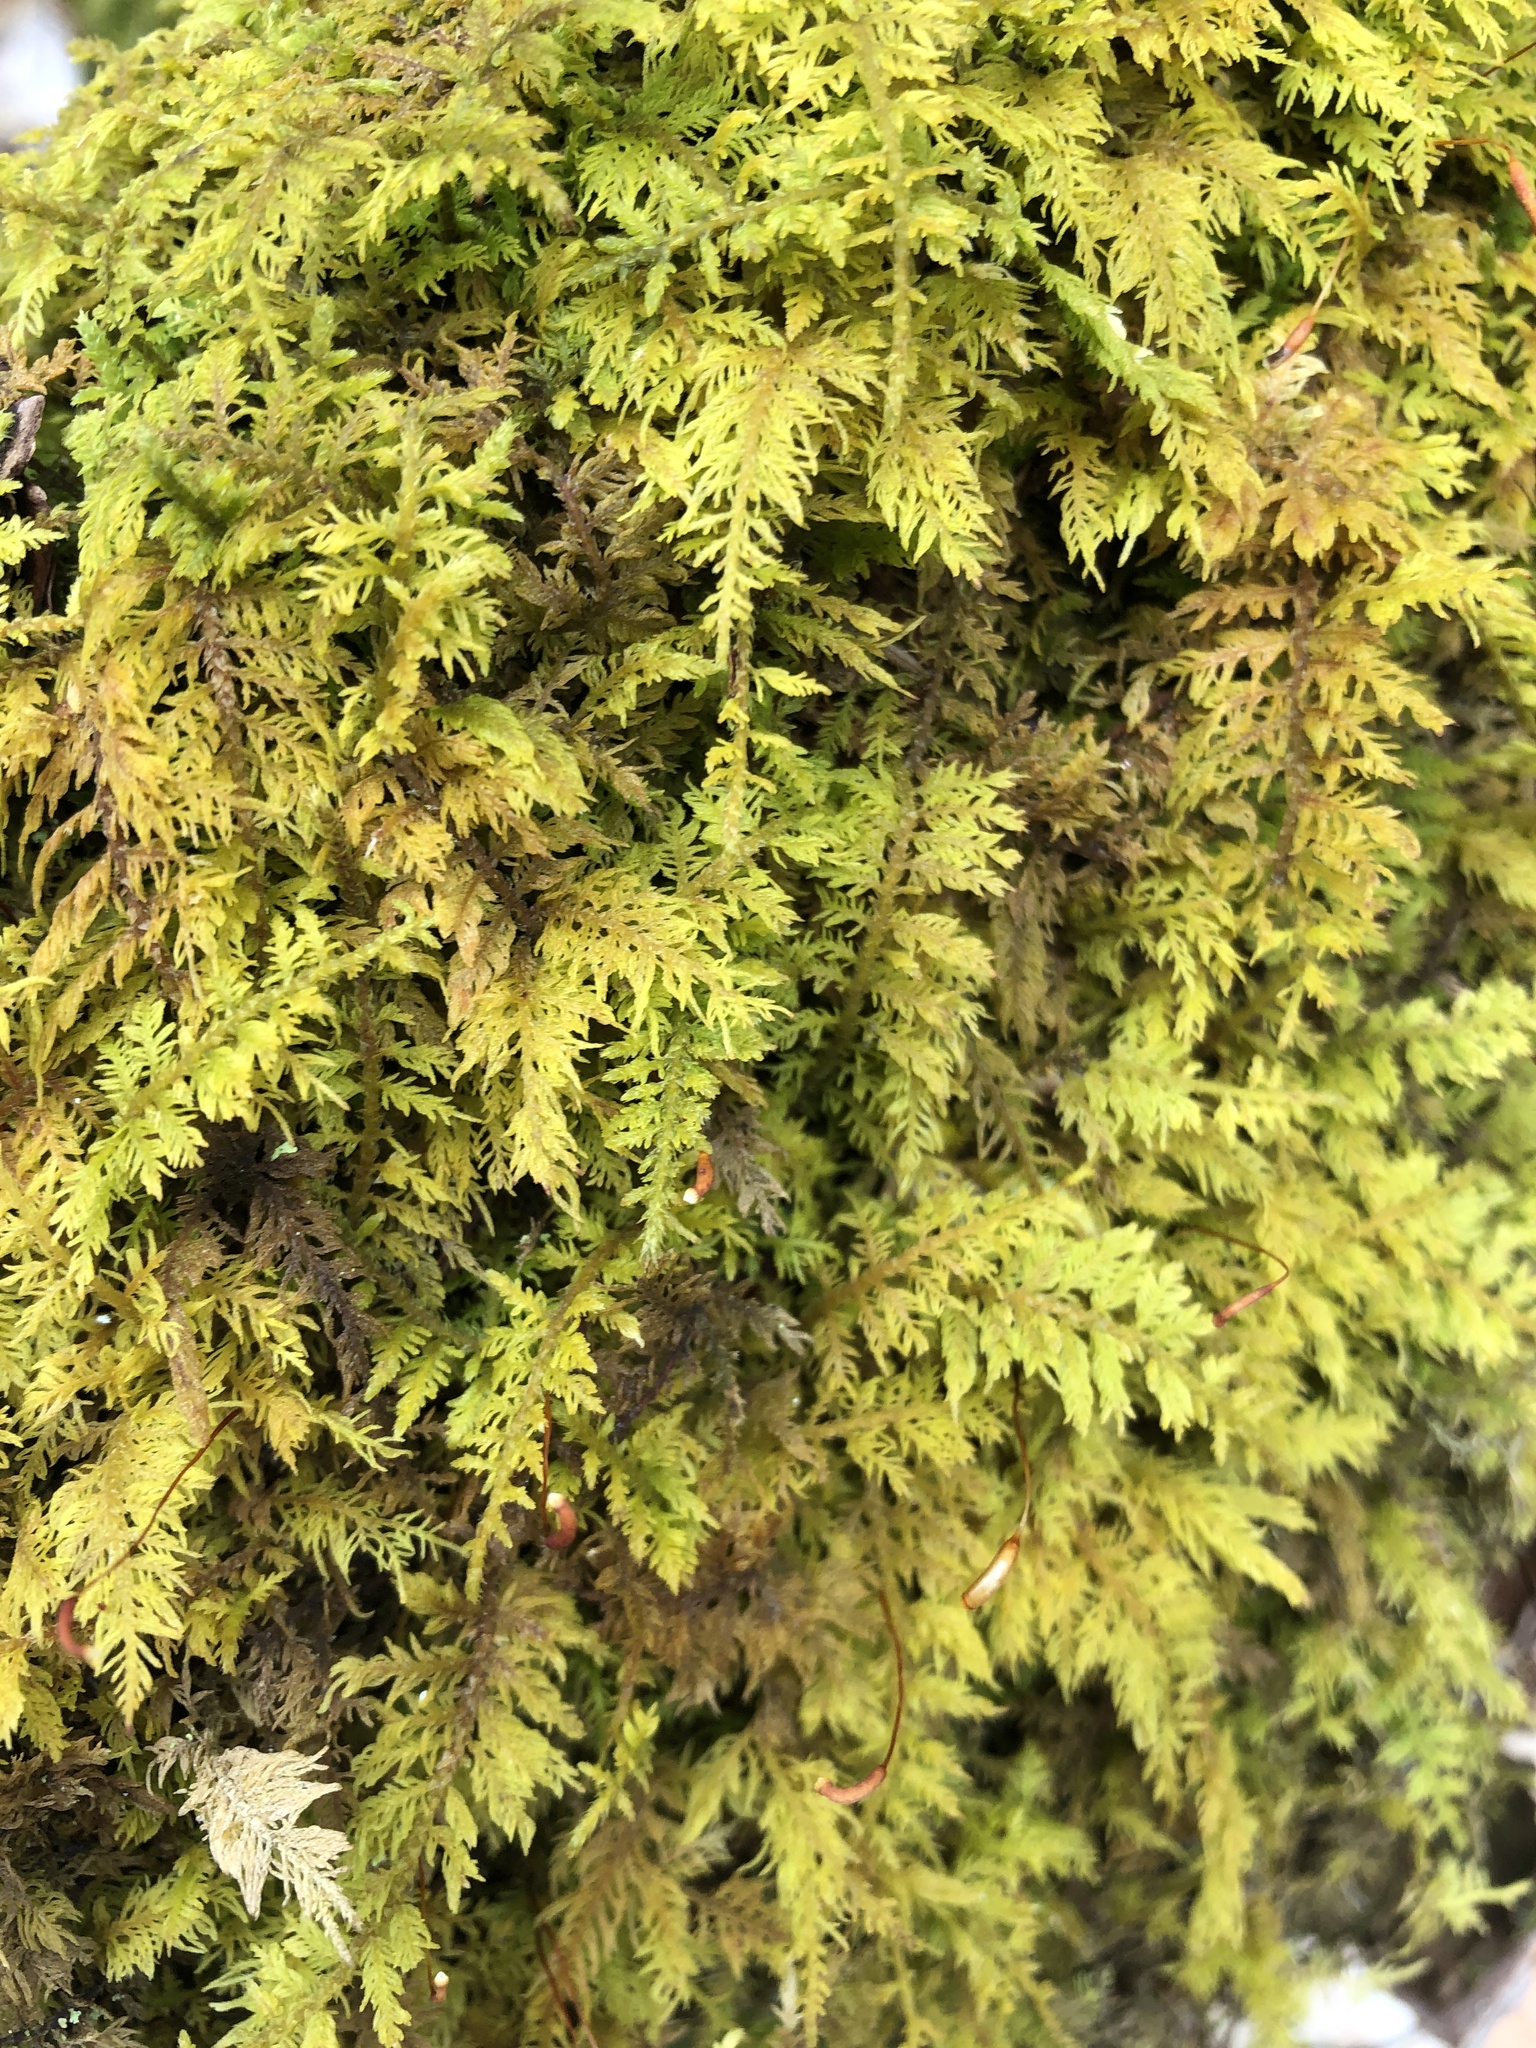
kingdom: Plantae
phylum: Bryophyta
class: Bryopsida
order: Hypnales
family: Thuidiaceae
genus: Thuidium
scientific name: Thuidium delicatulum
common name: Delicate fern moss
